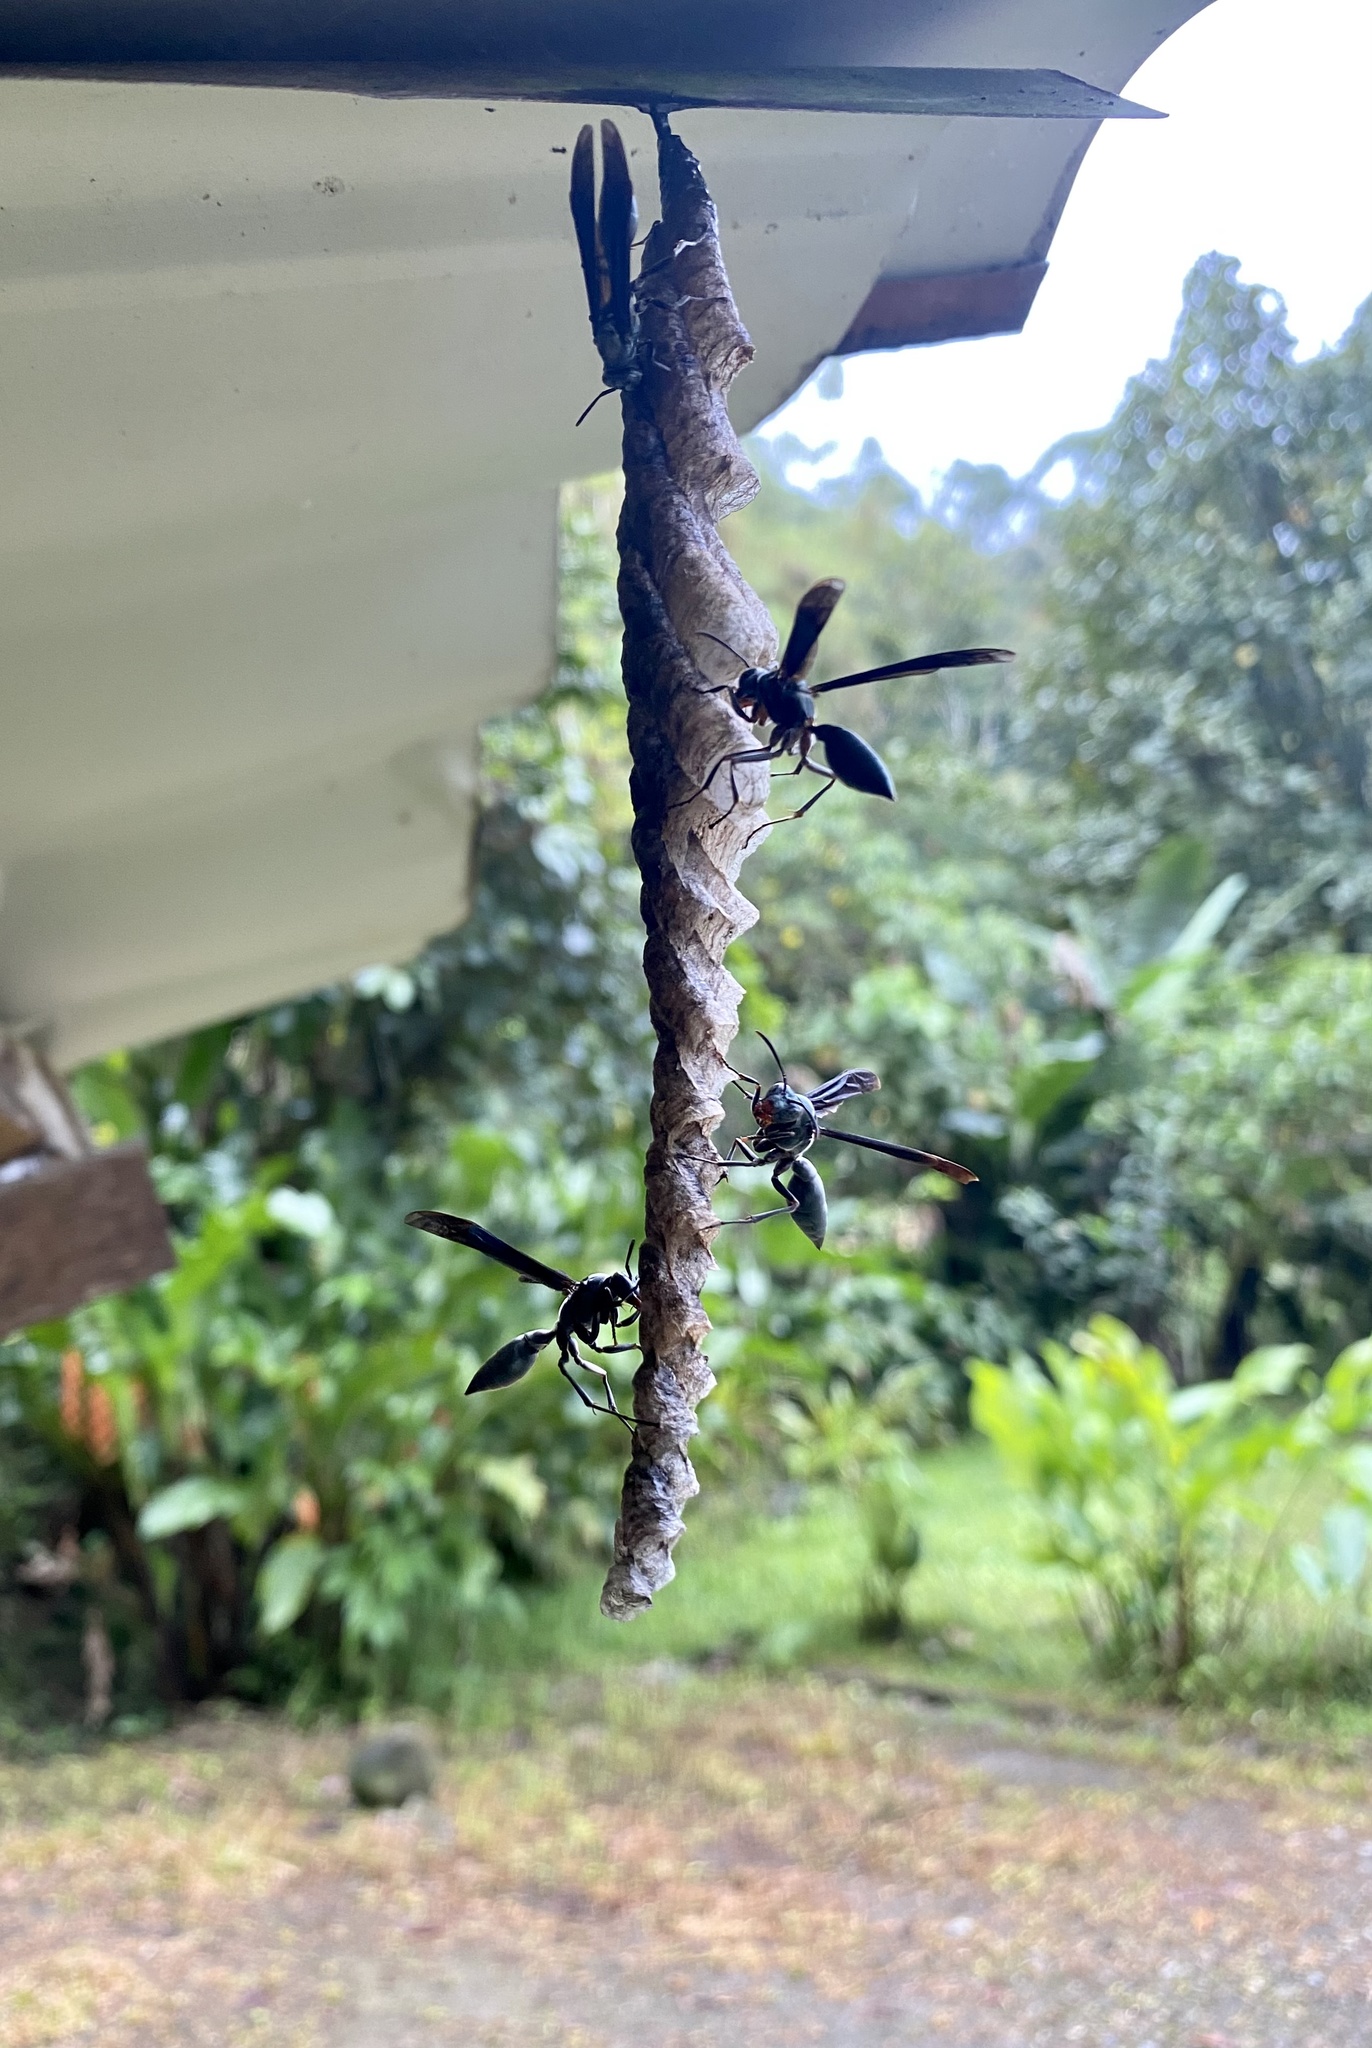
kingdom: Animalia
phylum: Arthropoda
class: Insecta
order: Hymenoptera
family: Eumenidae
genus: Polistes
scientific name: Polistes goeldii
